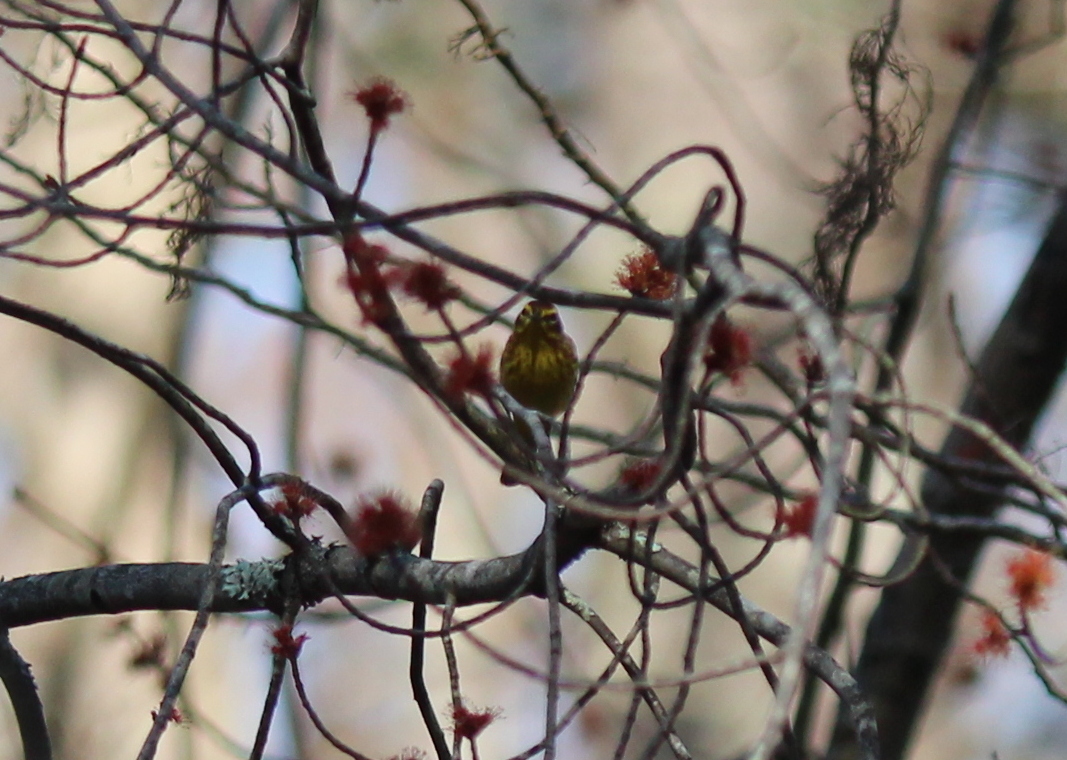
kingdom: Animalia
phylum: Chordata
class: Aves
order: Passeriformes
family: Parulidae
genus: Setophaga
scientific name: Setophaga palmarum
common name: Palm warbler
